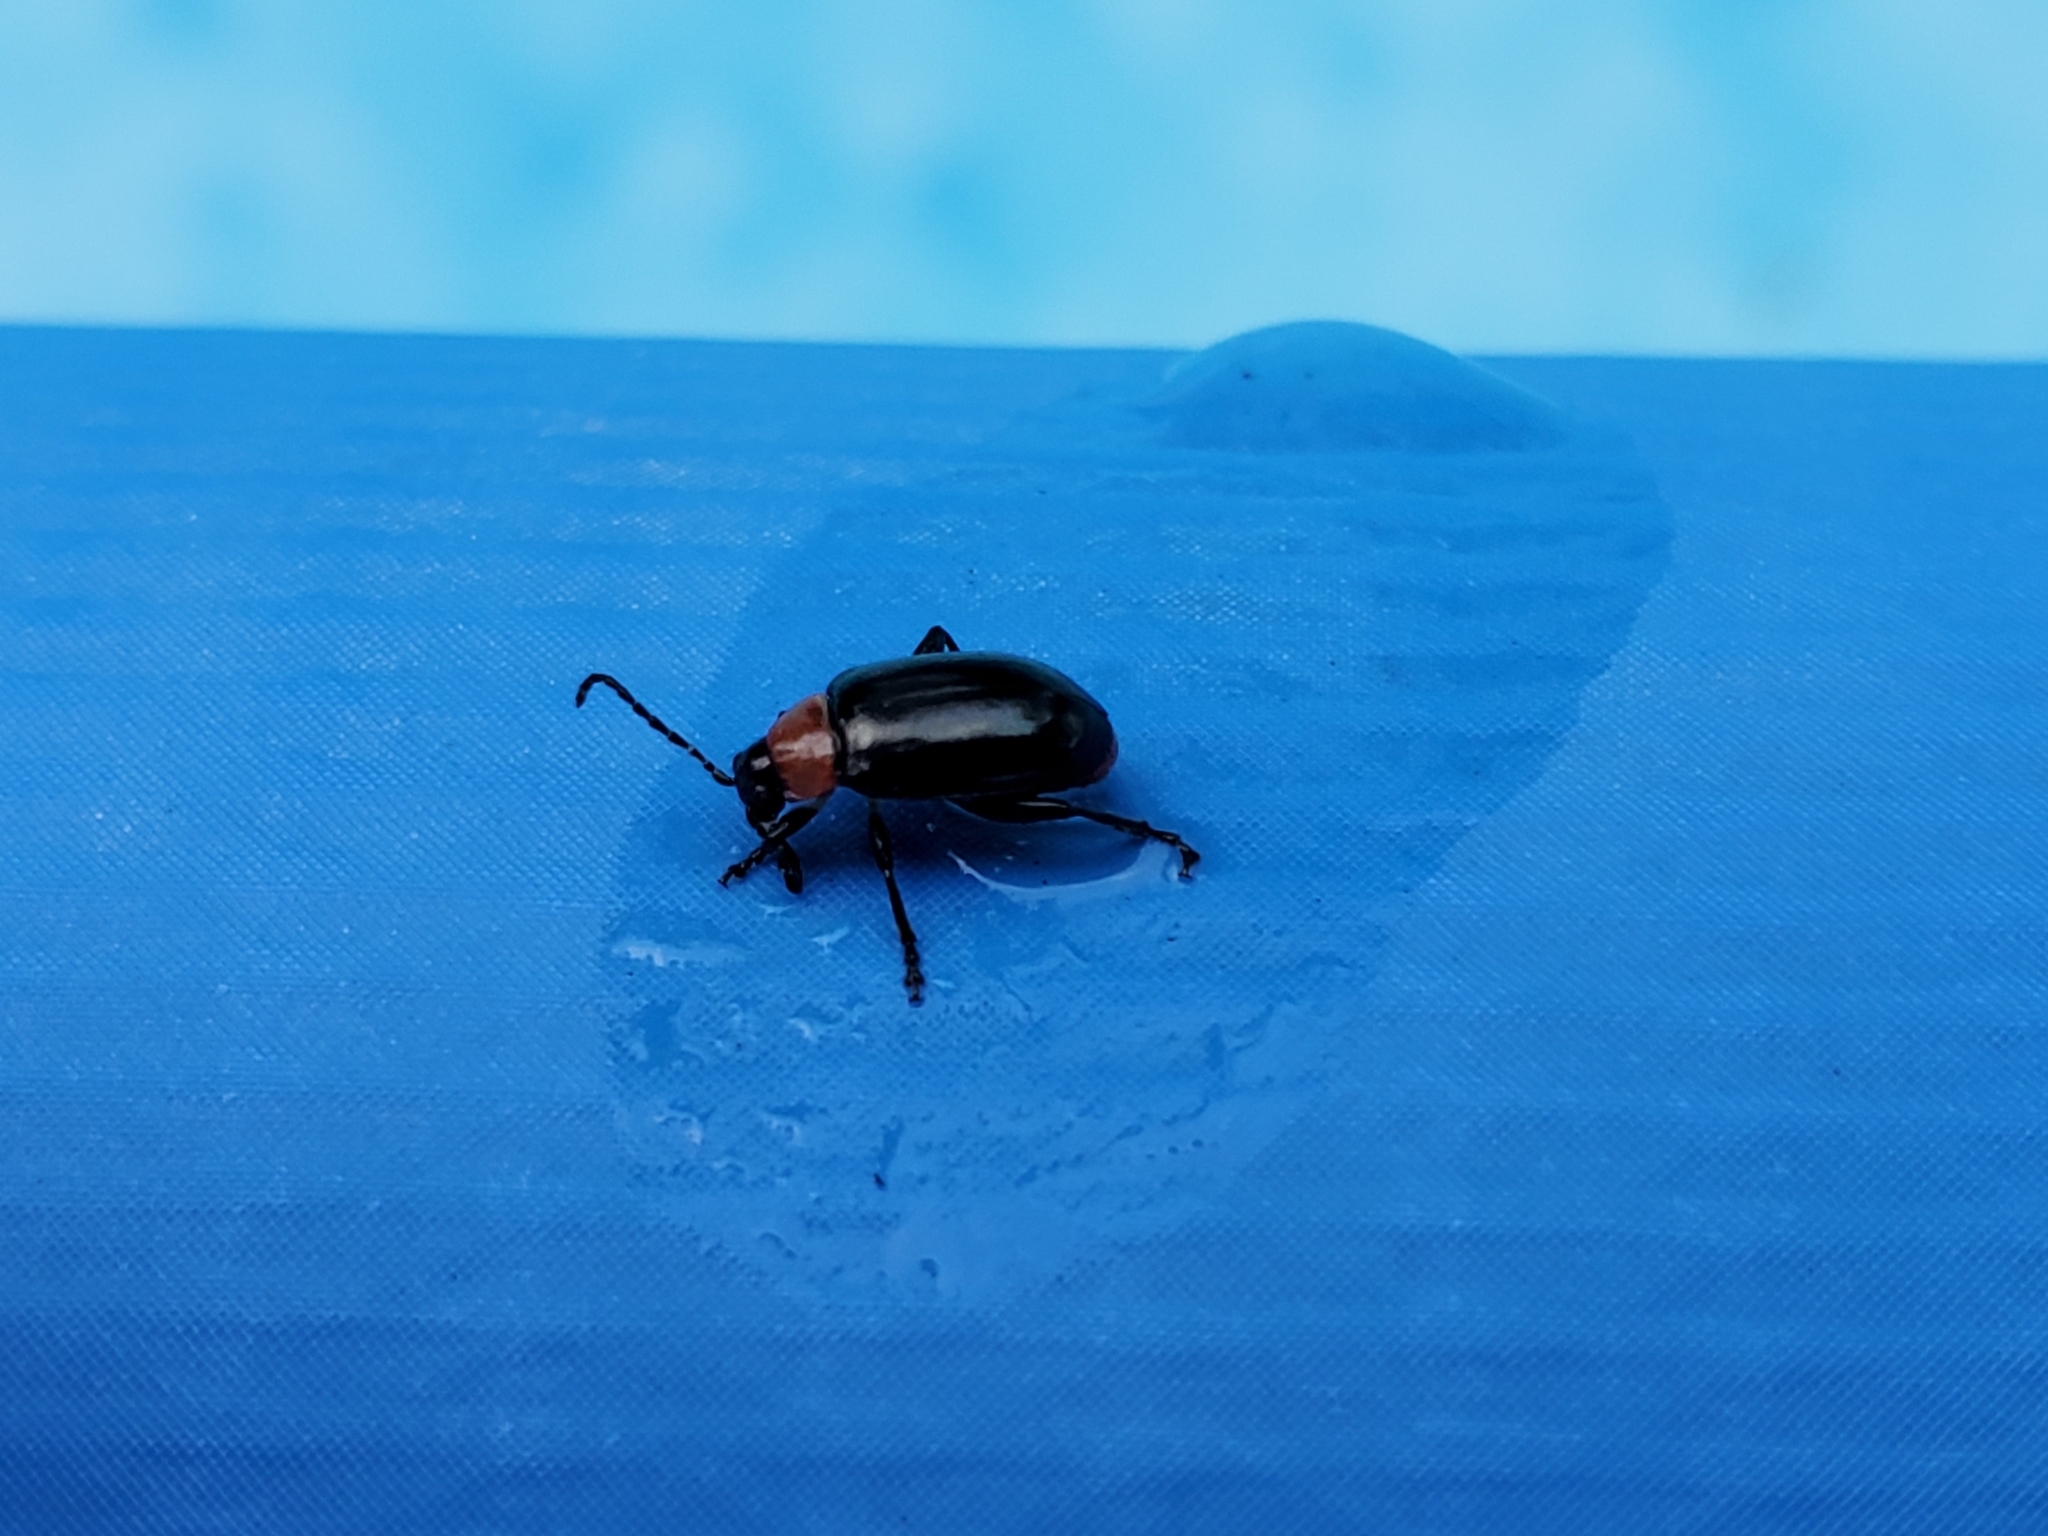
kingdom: Animalia
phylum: Arthropoda
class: Insecta
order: Coleoptera
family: Chrysomelidae
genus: Disonycha
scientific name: Disonycha xanthomelas
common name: Spinach flea beetle
